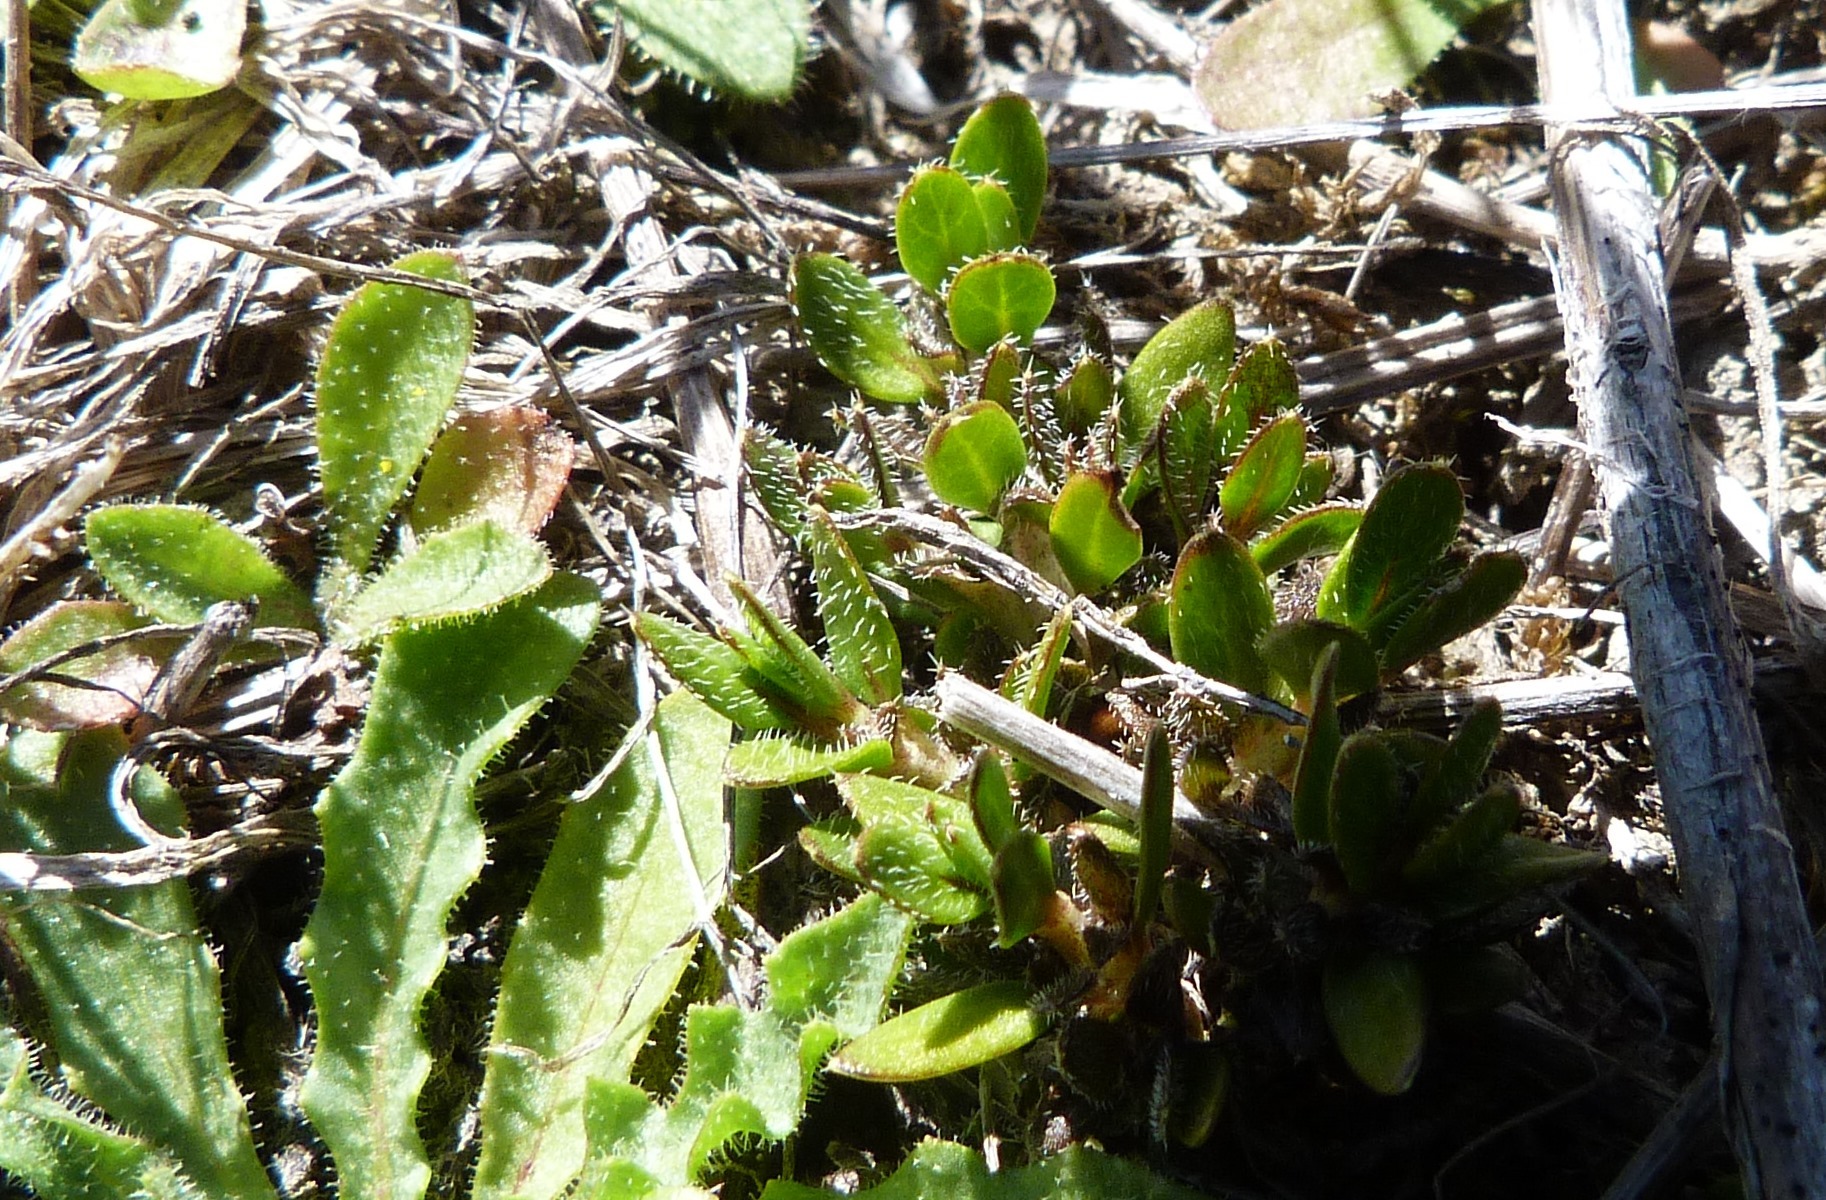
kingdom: Plantae
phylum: Tracheophyta
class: Magnoliopsida
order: Gentianales
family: Rubiaceae
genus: Coprosma
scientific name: Coprosma atropurpurea
